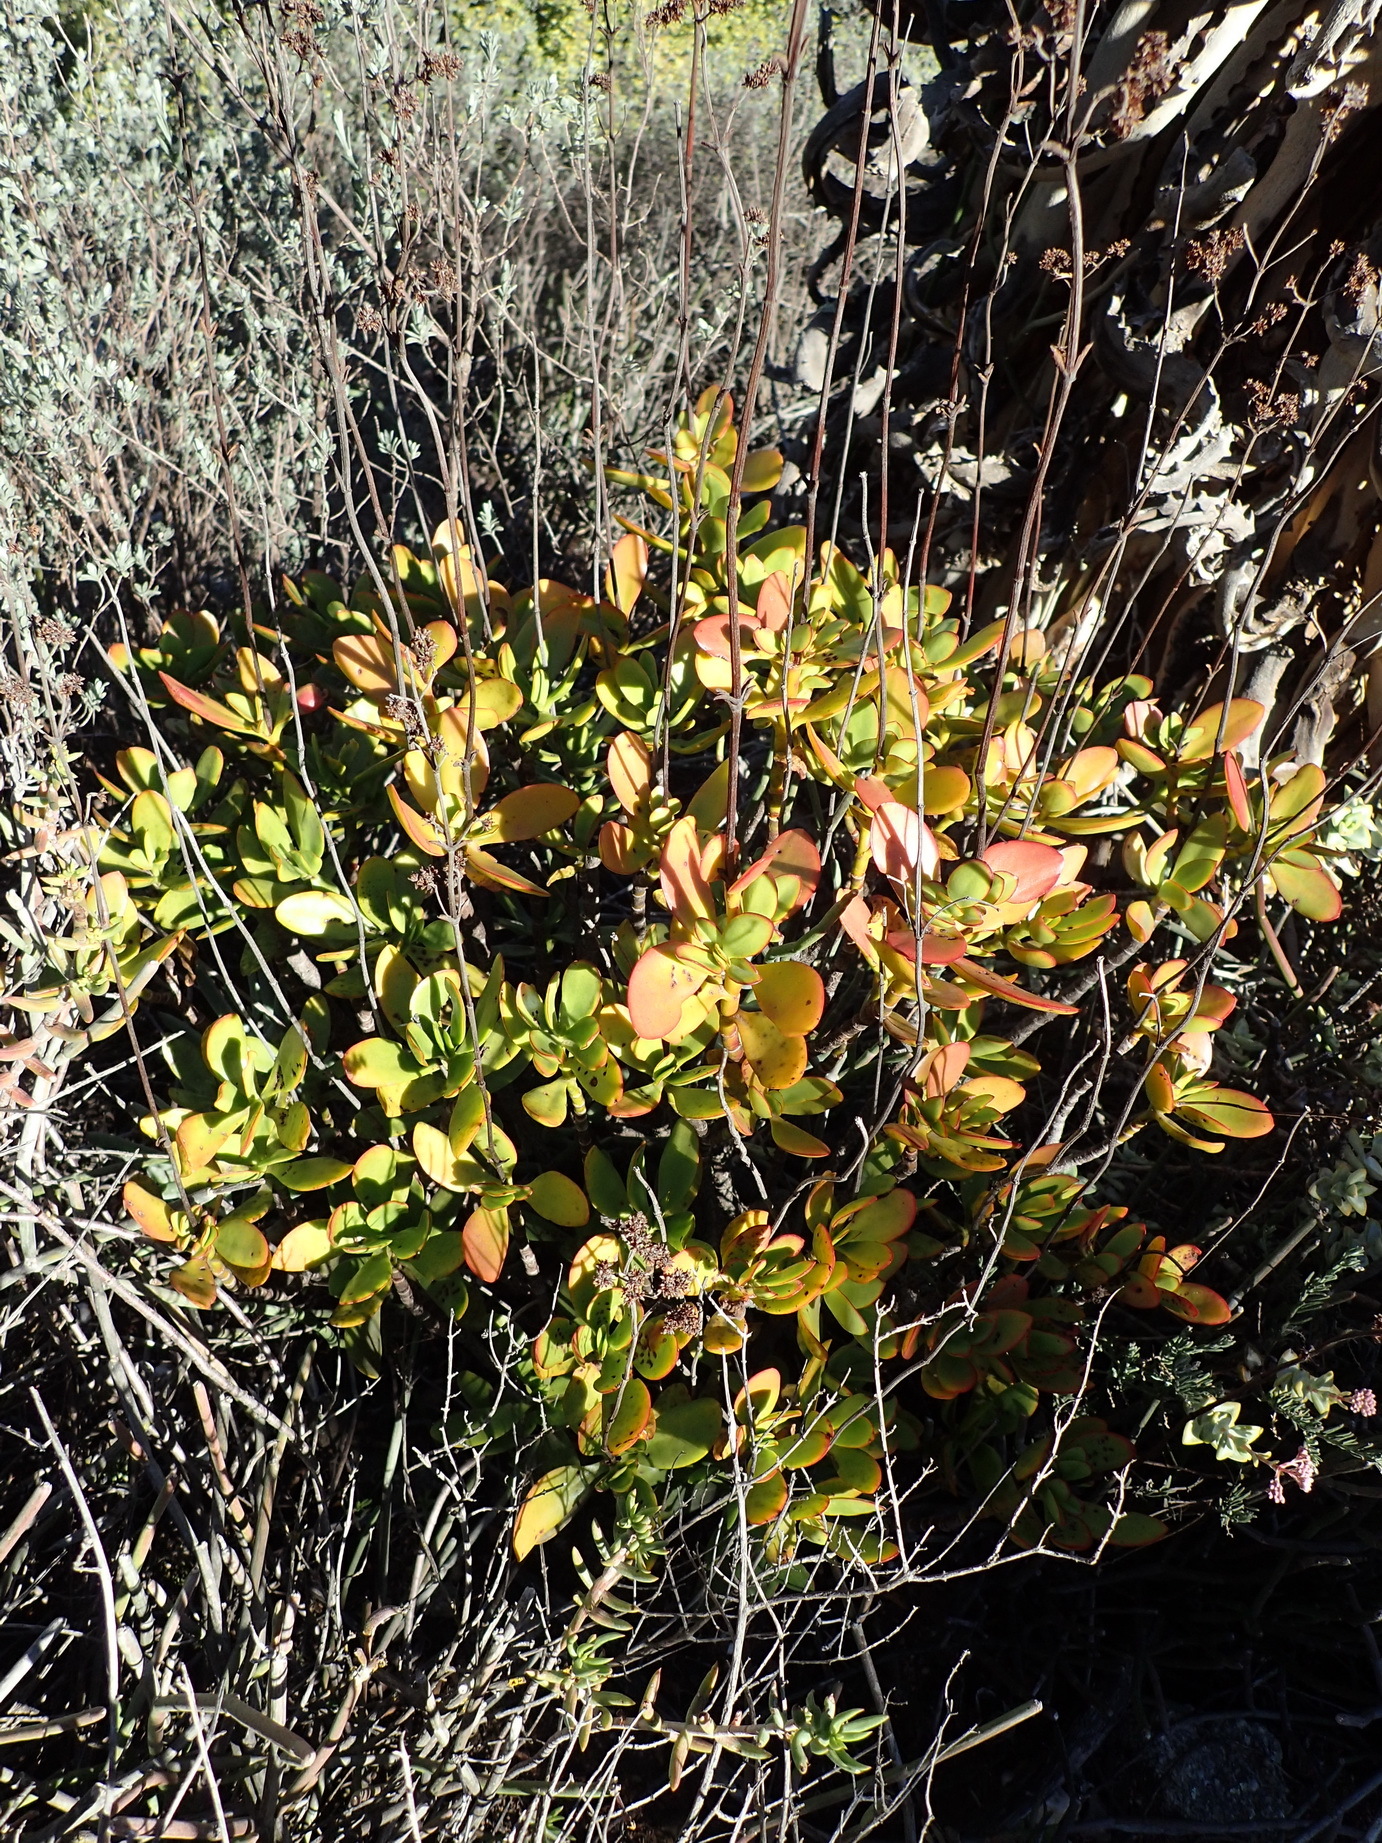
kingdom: Plantae
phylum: Tracheophyta
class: Magnoliopsida
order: Saxifragales
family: Crassulaceae
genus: Crassula
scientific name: Crassula cultrata
